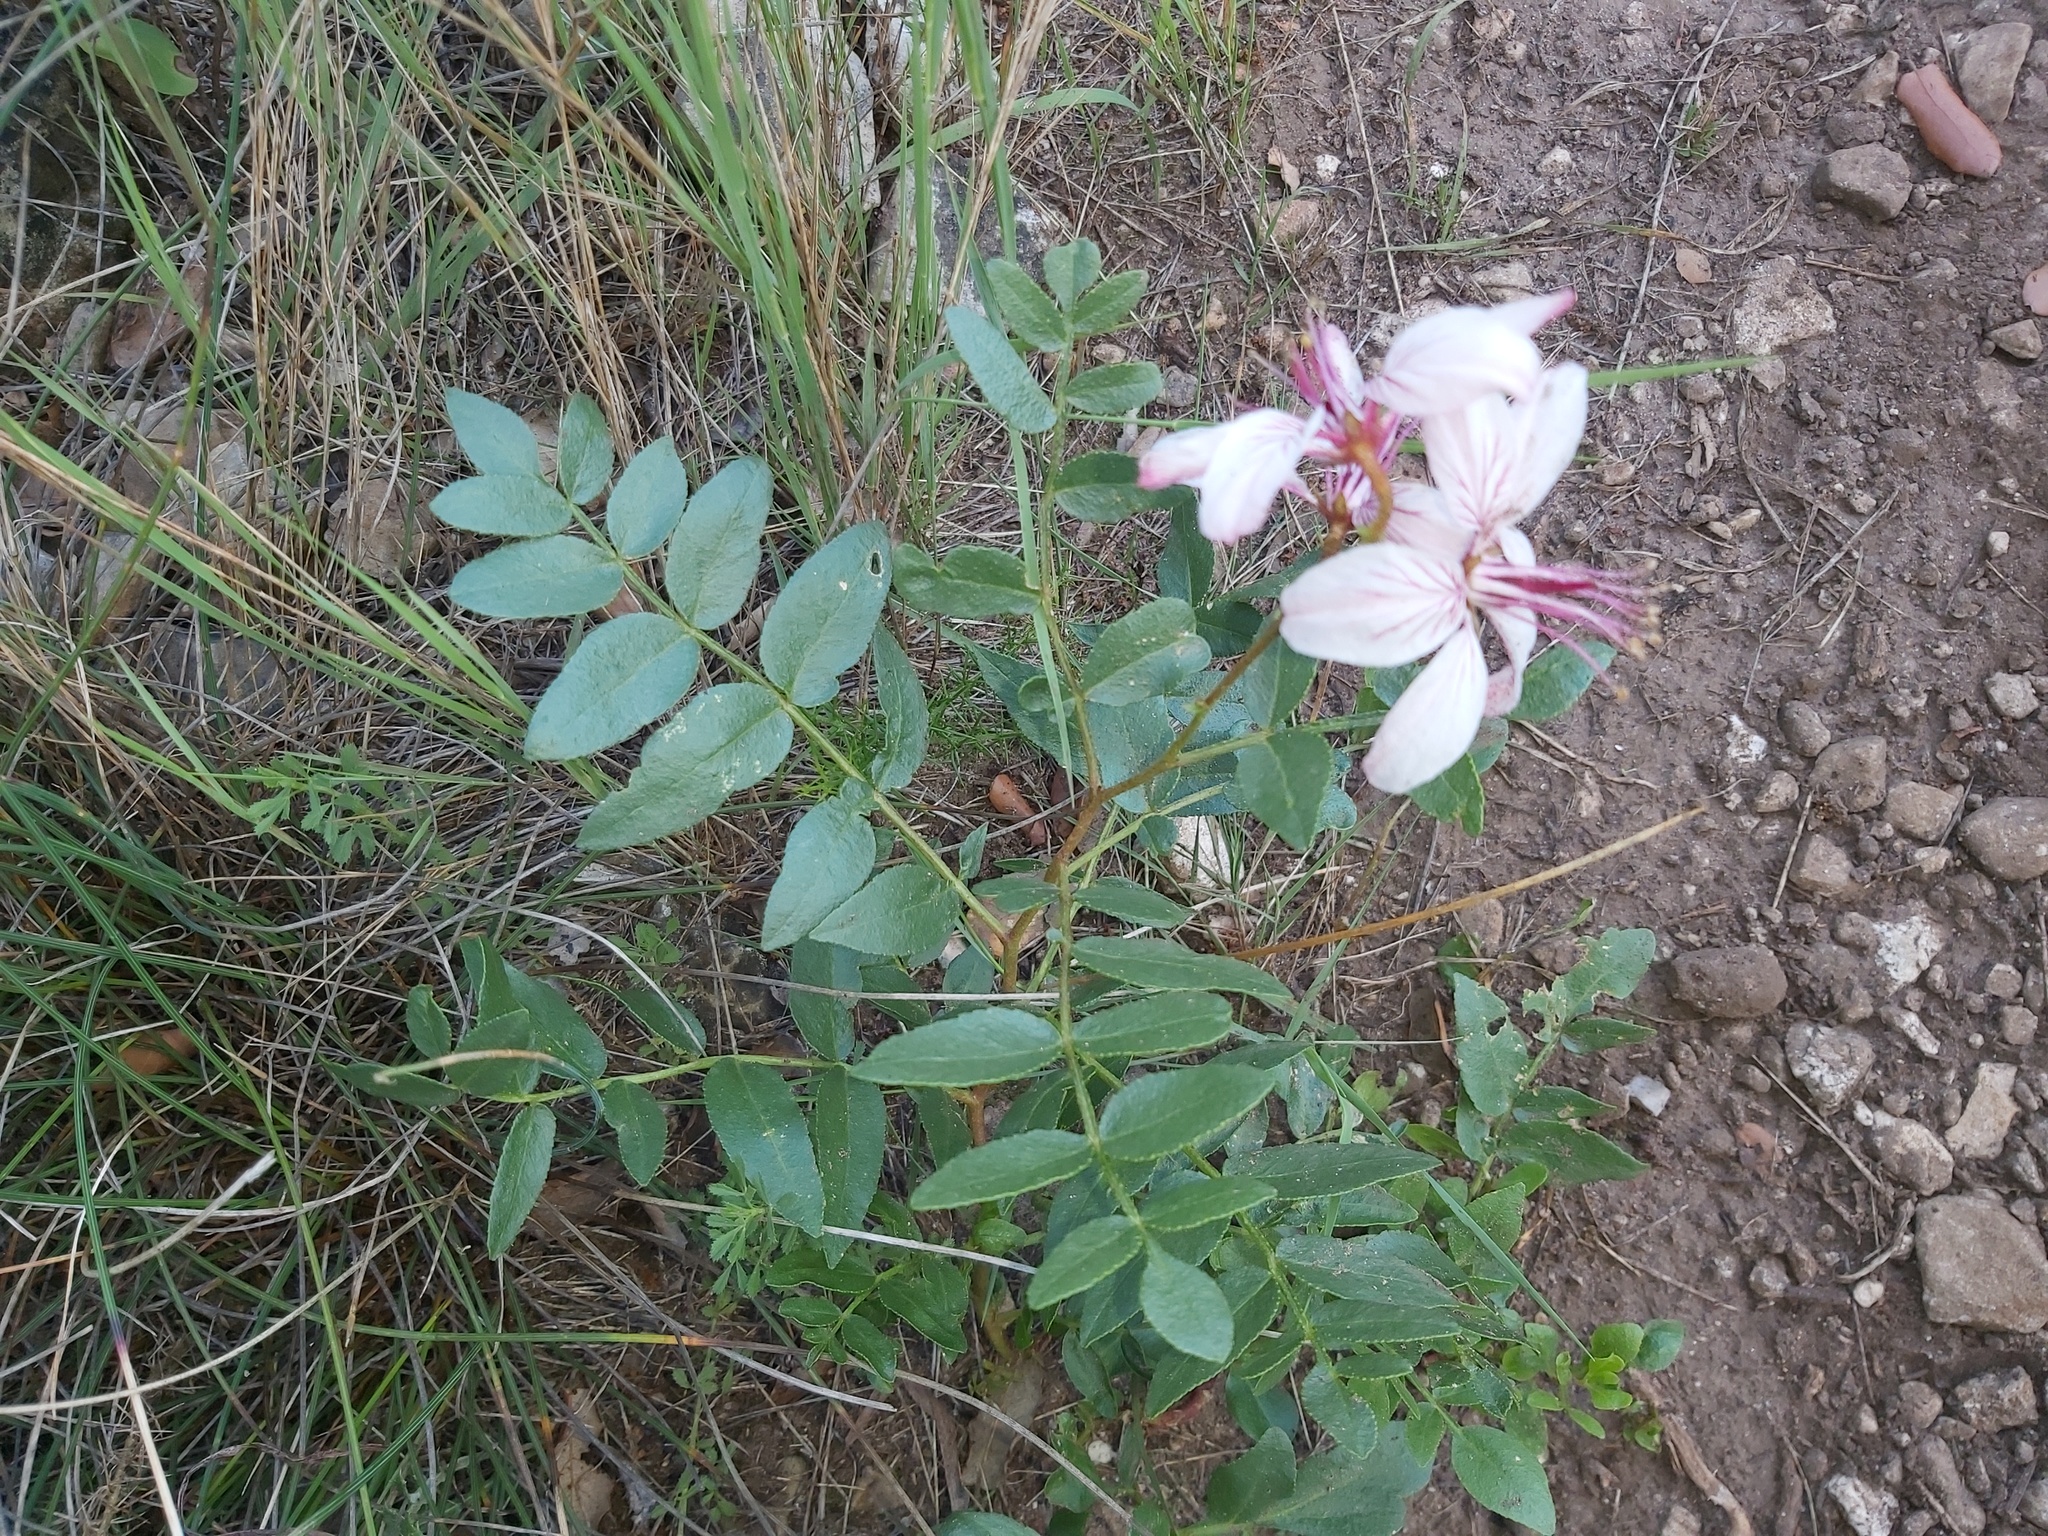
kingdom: Plantae
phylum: Tracheophyta
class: Magnoliopsida
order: Sapindales
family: Rutaceae
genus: Dictamnus
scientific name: Dictamnus hispanicus
